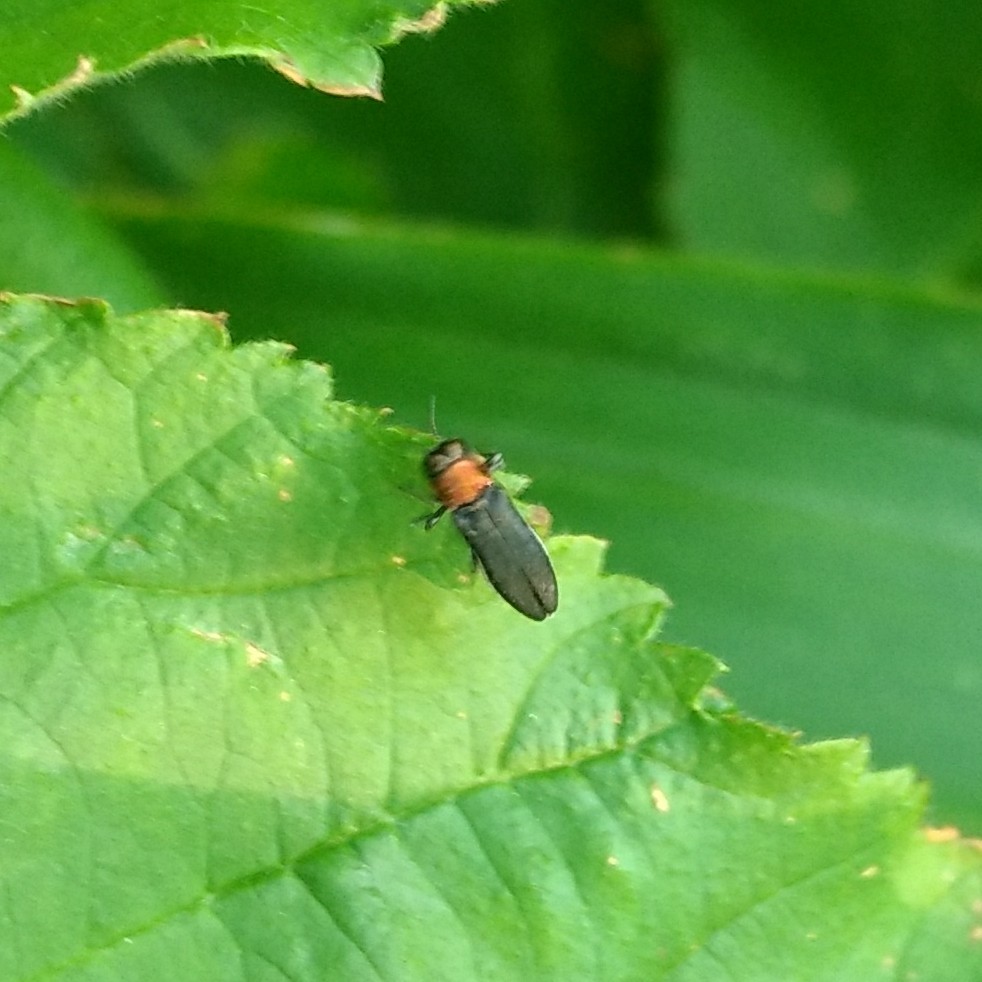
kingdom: Animalia
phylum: Arthropoda
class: Insecta
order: Coleoptera
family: Buprestidae
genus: Agrilus
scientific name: Agrilus ruficollis
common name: Red-necked cane borer beetle
